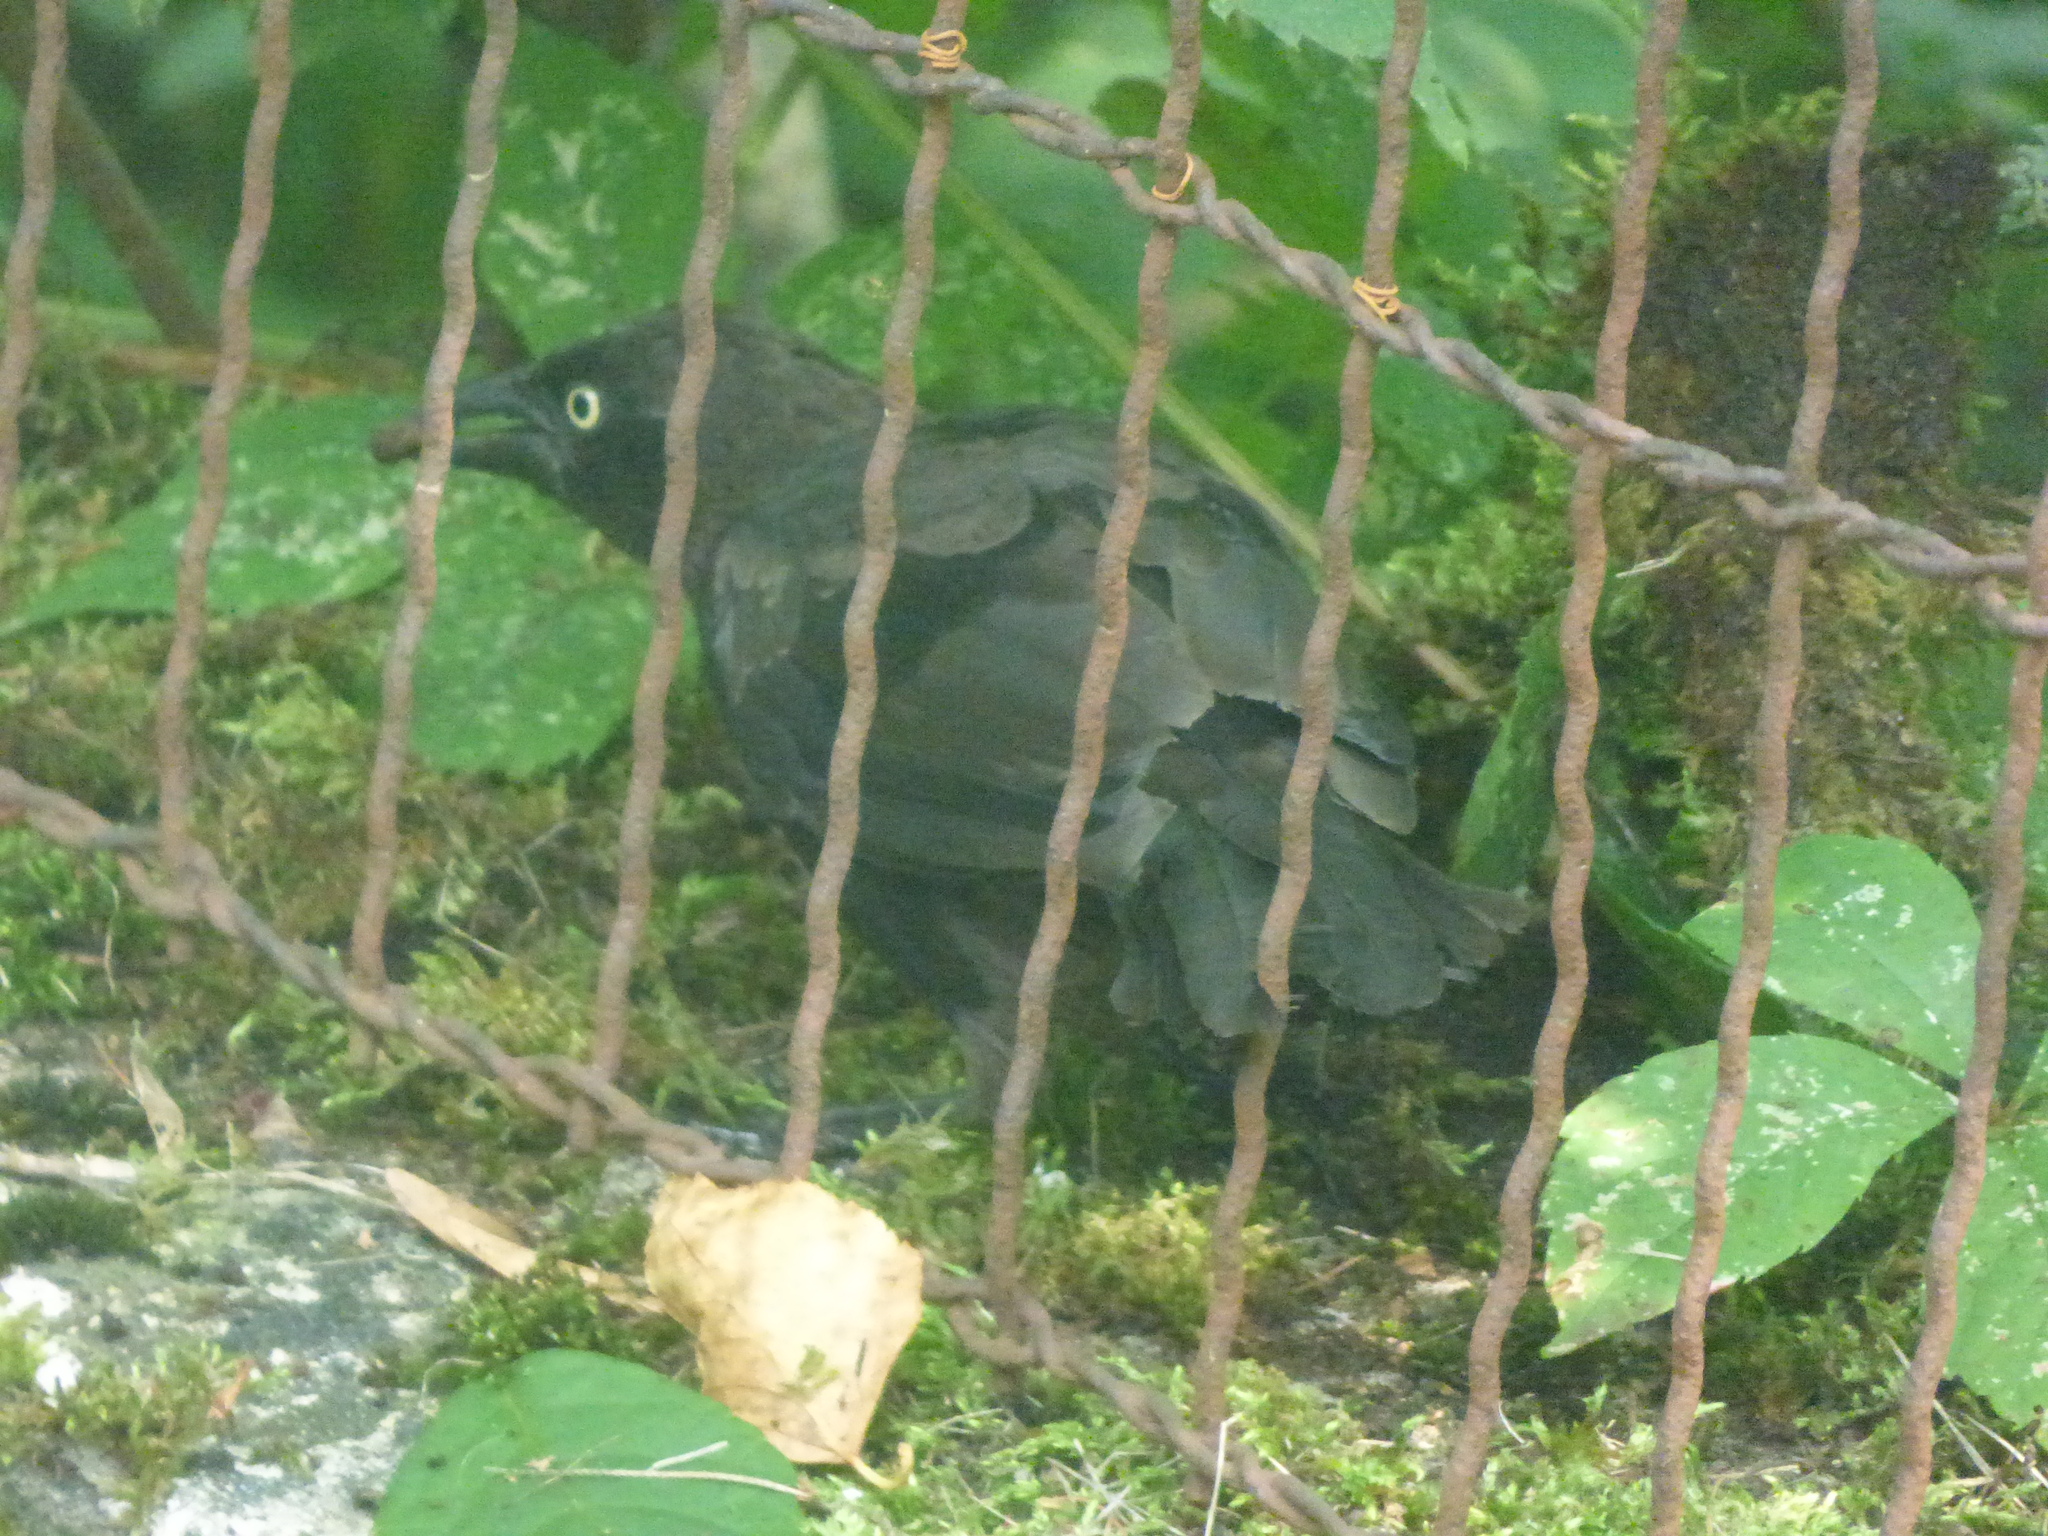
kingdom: Animalia
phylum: Chordata
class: Aves
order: Passeriformes
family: Icteridae
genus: Quiscalus
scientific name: Quiscalus quiscula
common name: Common grackle
